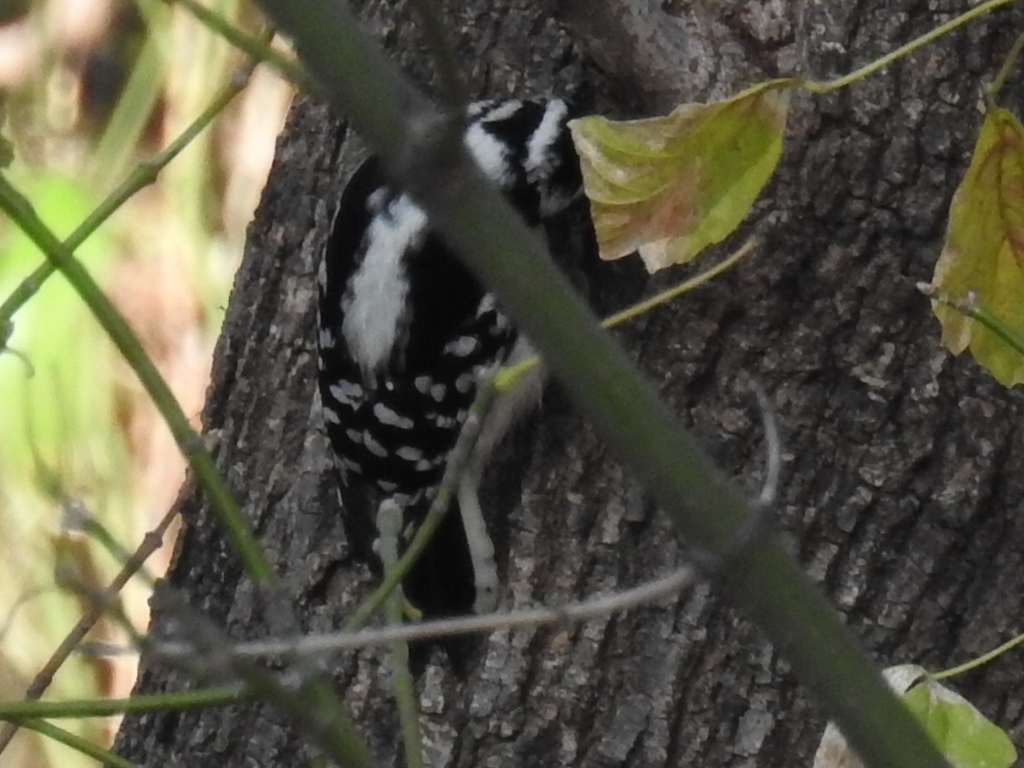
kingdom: Animalia
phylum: Chordata
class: Aves
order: Piciformes
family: Picidae
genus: Dryobates
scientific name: Dryobates pubescens
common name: Downy woodpecker
